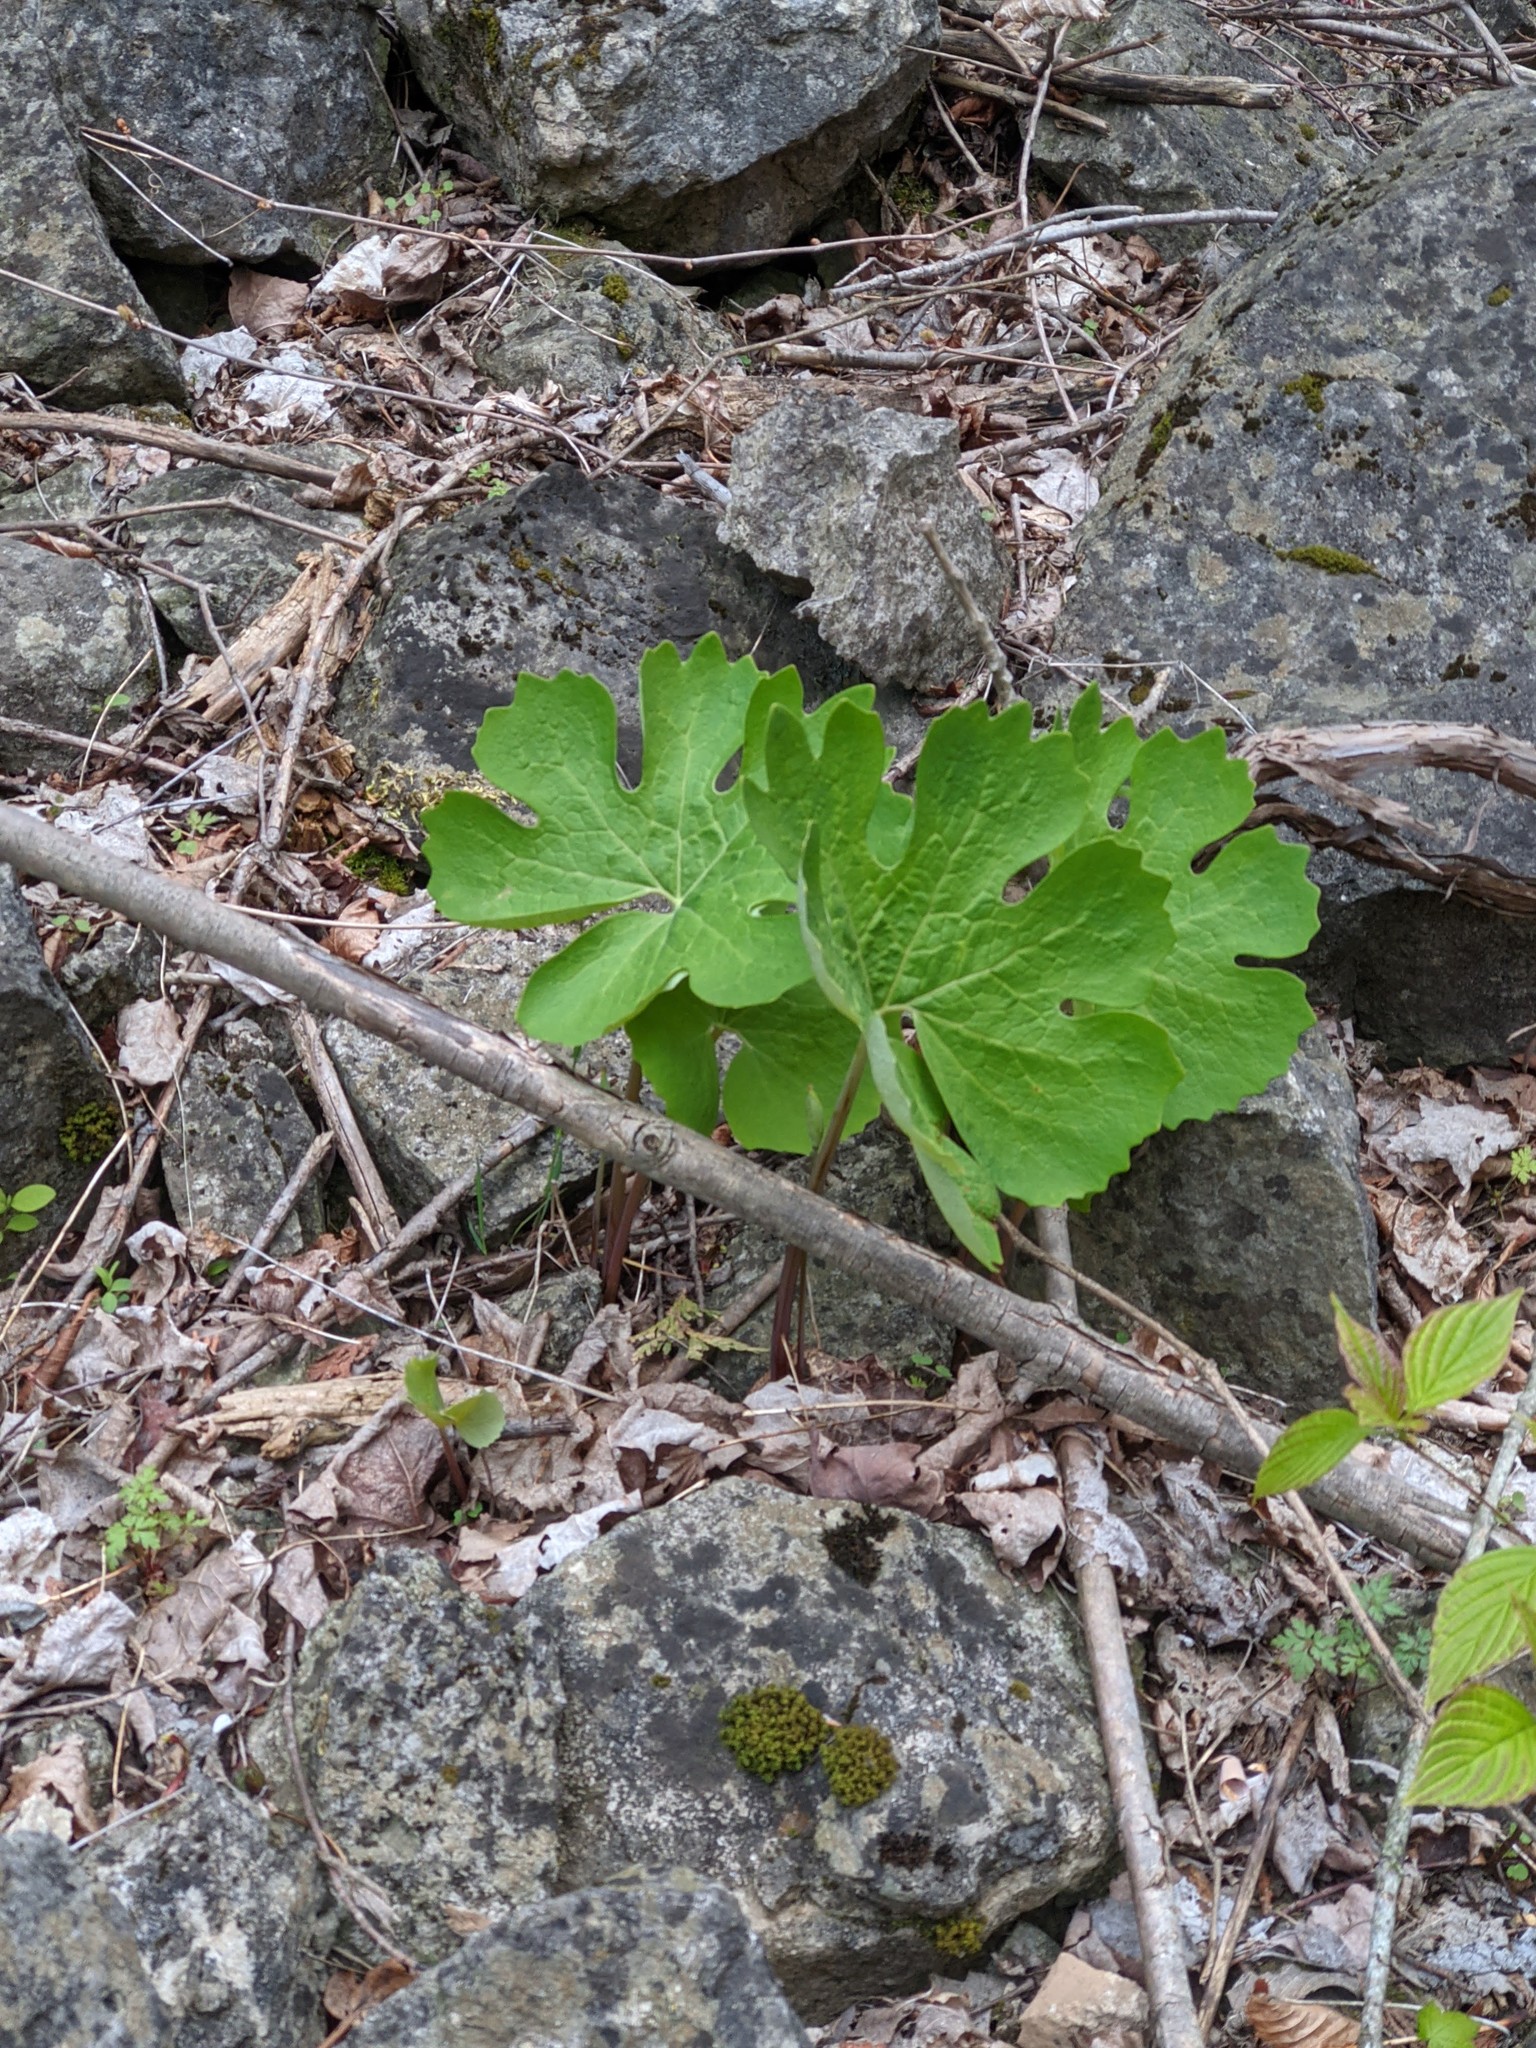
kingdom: Plantae
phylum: Tracheophyta
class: Magnoliopsida
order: Ranunculales
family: Papaveraceae
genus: Sanguinaria
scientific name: Sanguinaria canadensis
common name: Bloodroot
